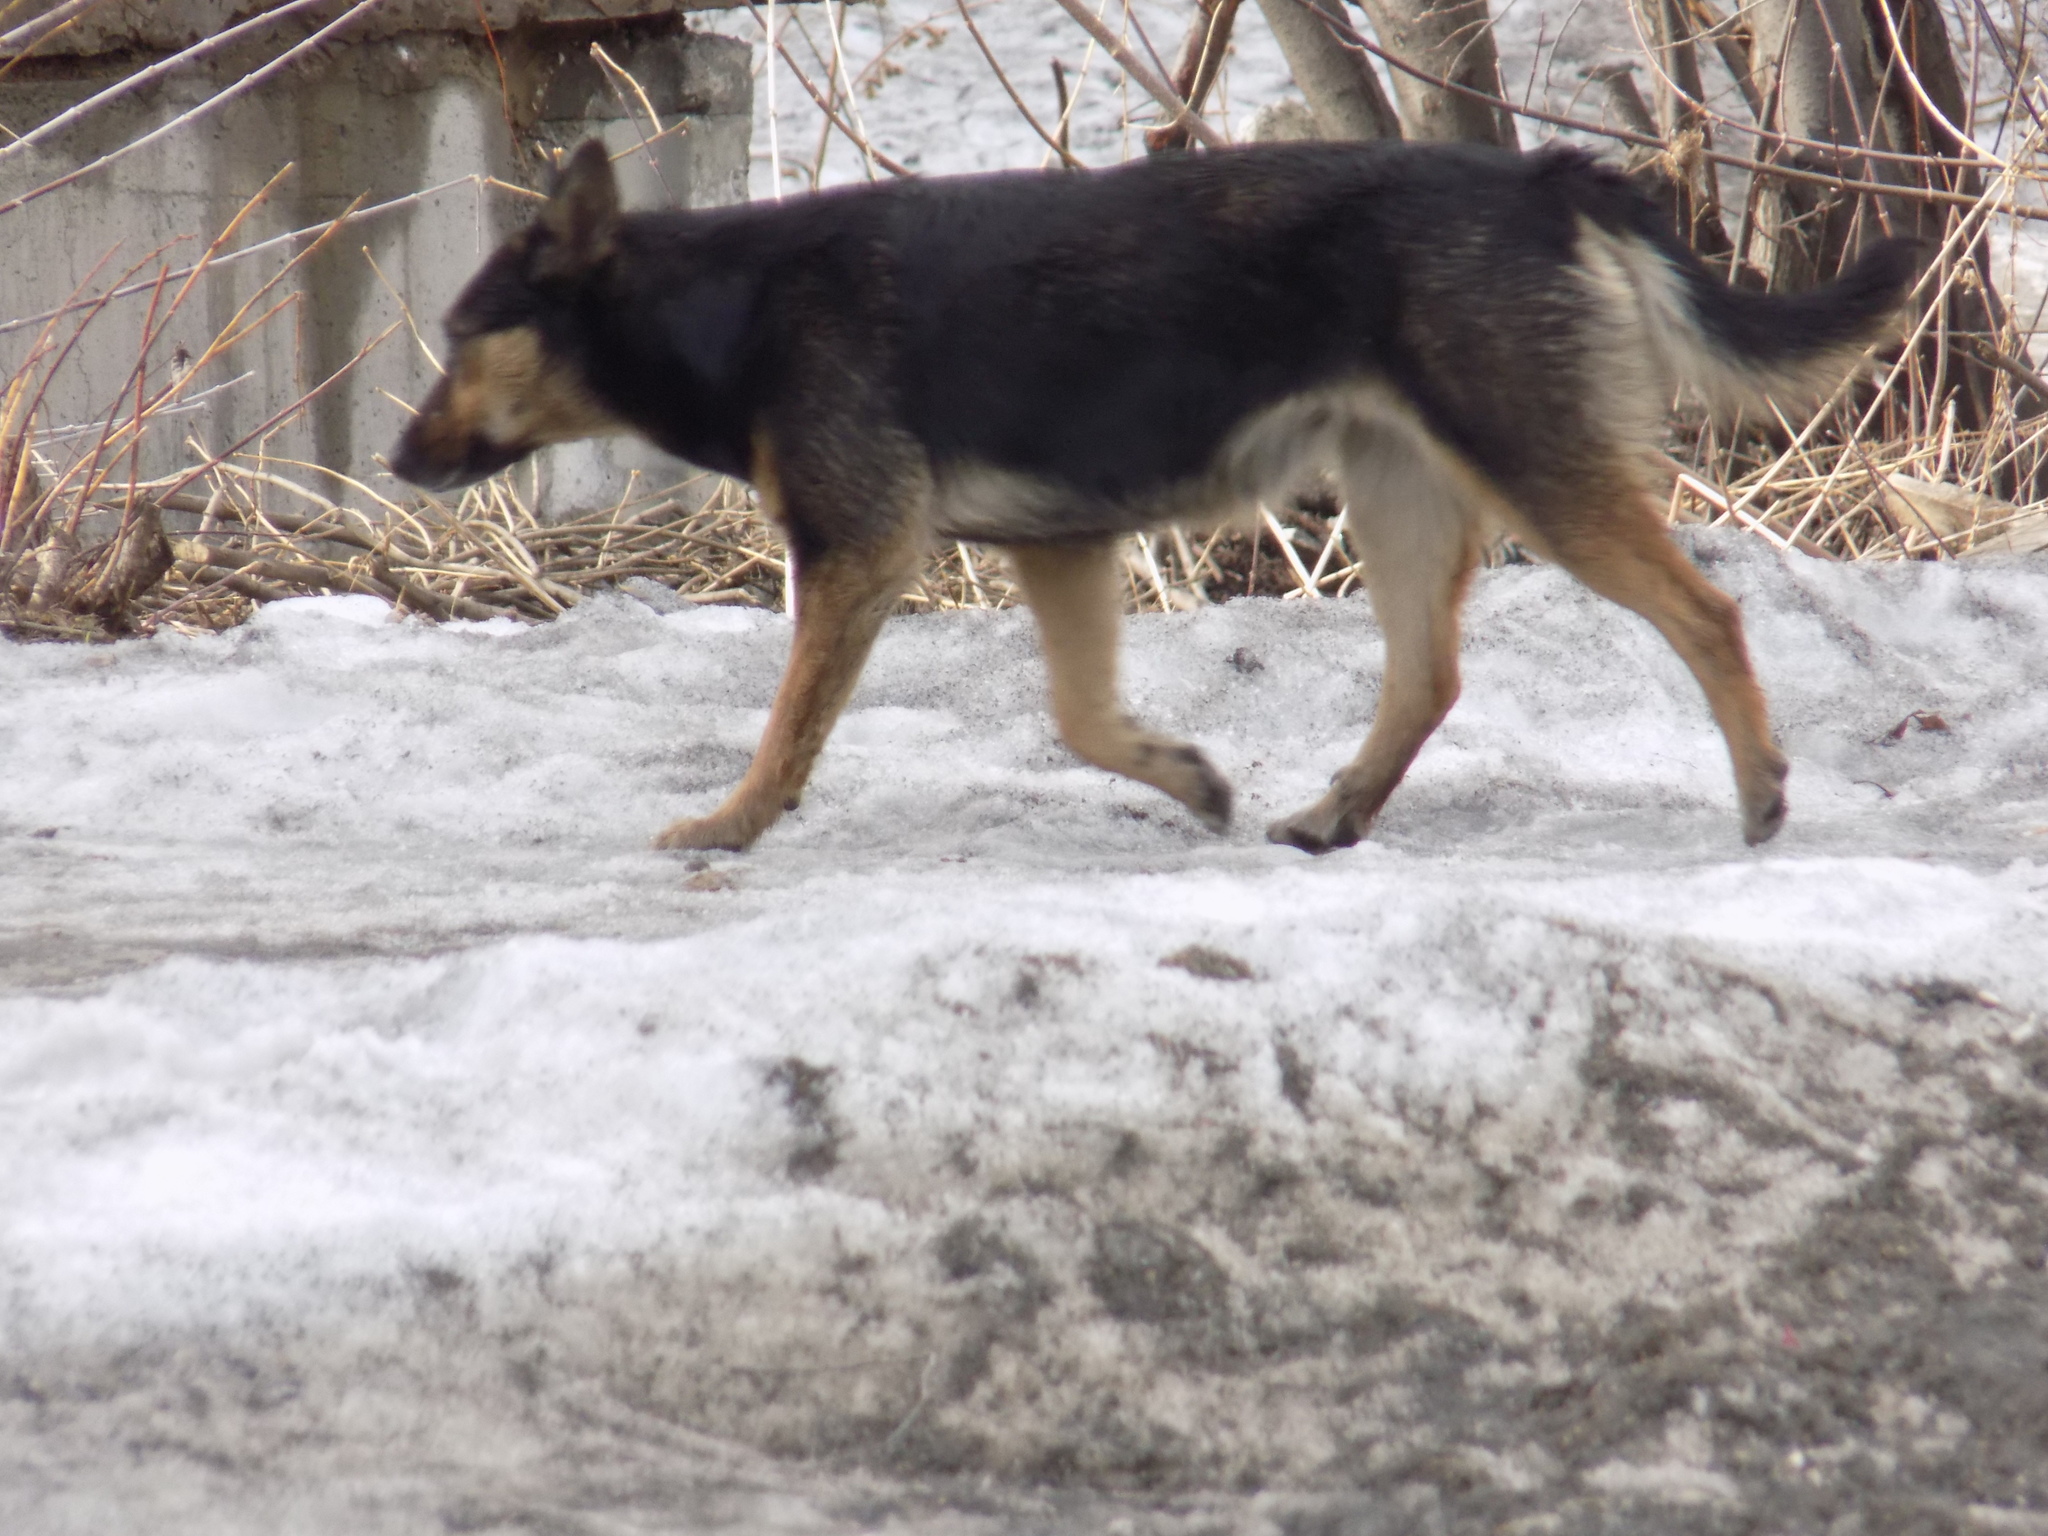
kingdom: Animalia
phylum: Chordata
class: Mammalia
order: Carnivora
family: Canidae
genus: Canis
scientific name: Canis lupus
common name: Gray wolf
